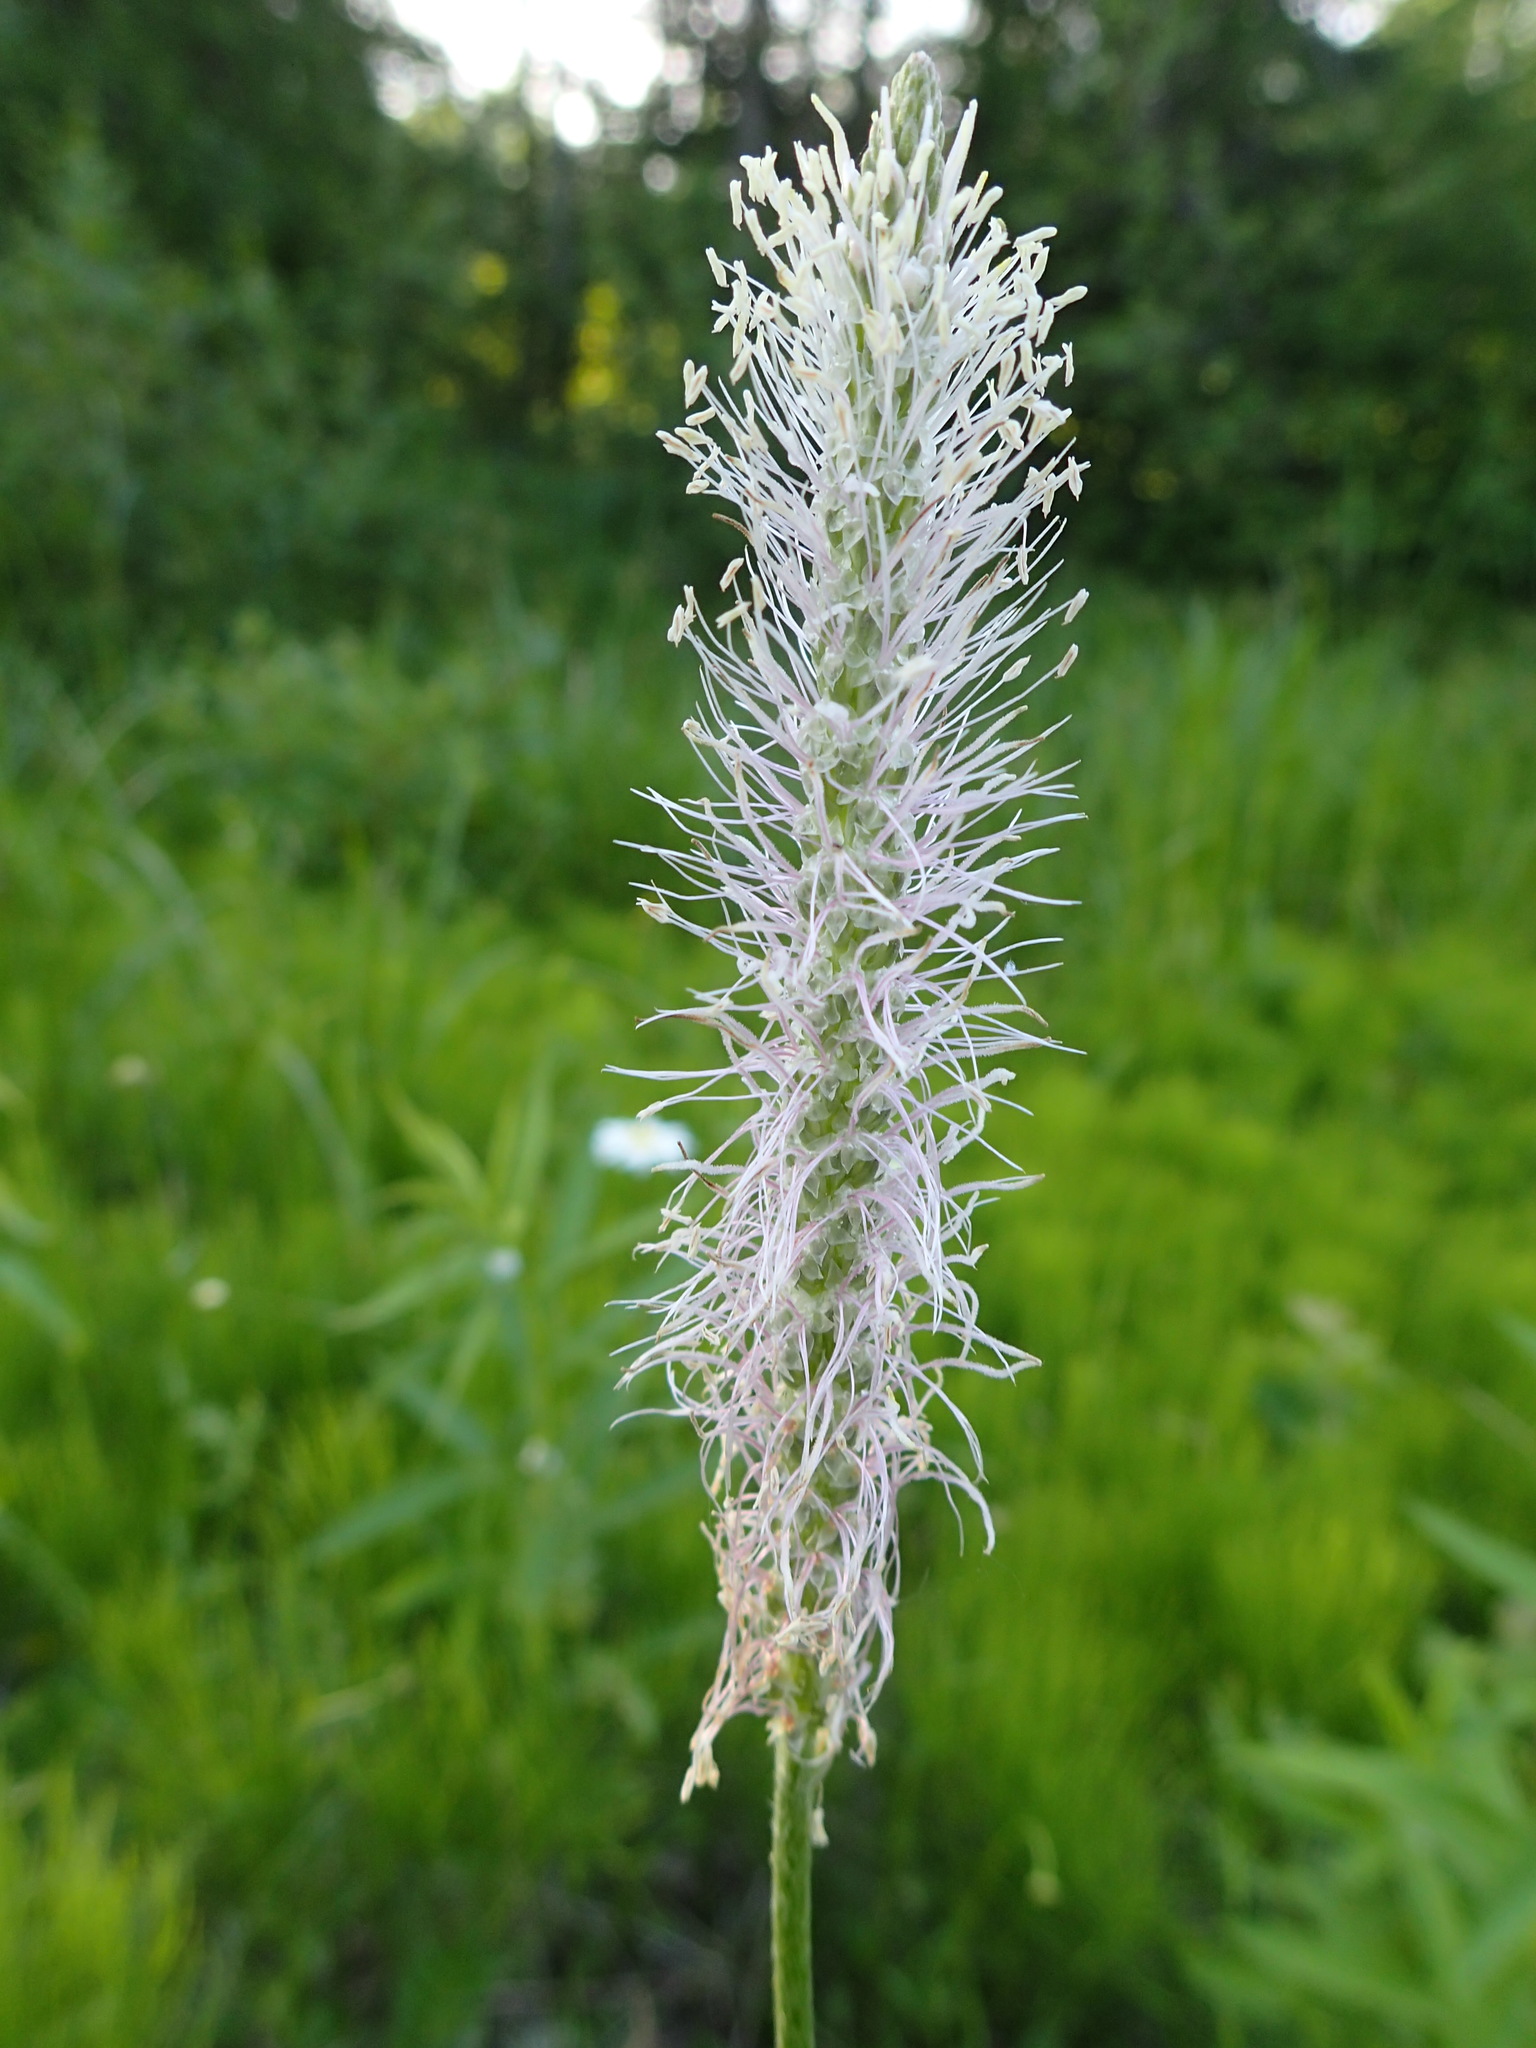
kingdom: Plantae
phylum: Tracheophyta
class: Magnoliopsida
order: Lamiales
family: Plantaginaceae
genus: Plantago
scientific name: Plantago media
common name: Hoary plantain
